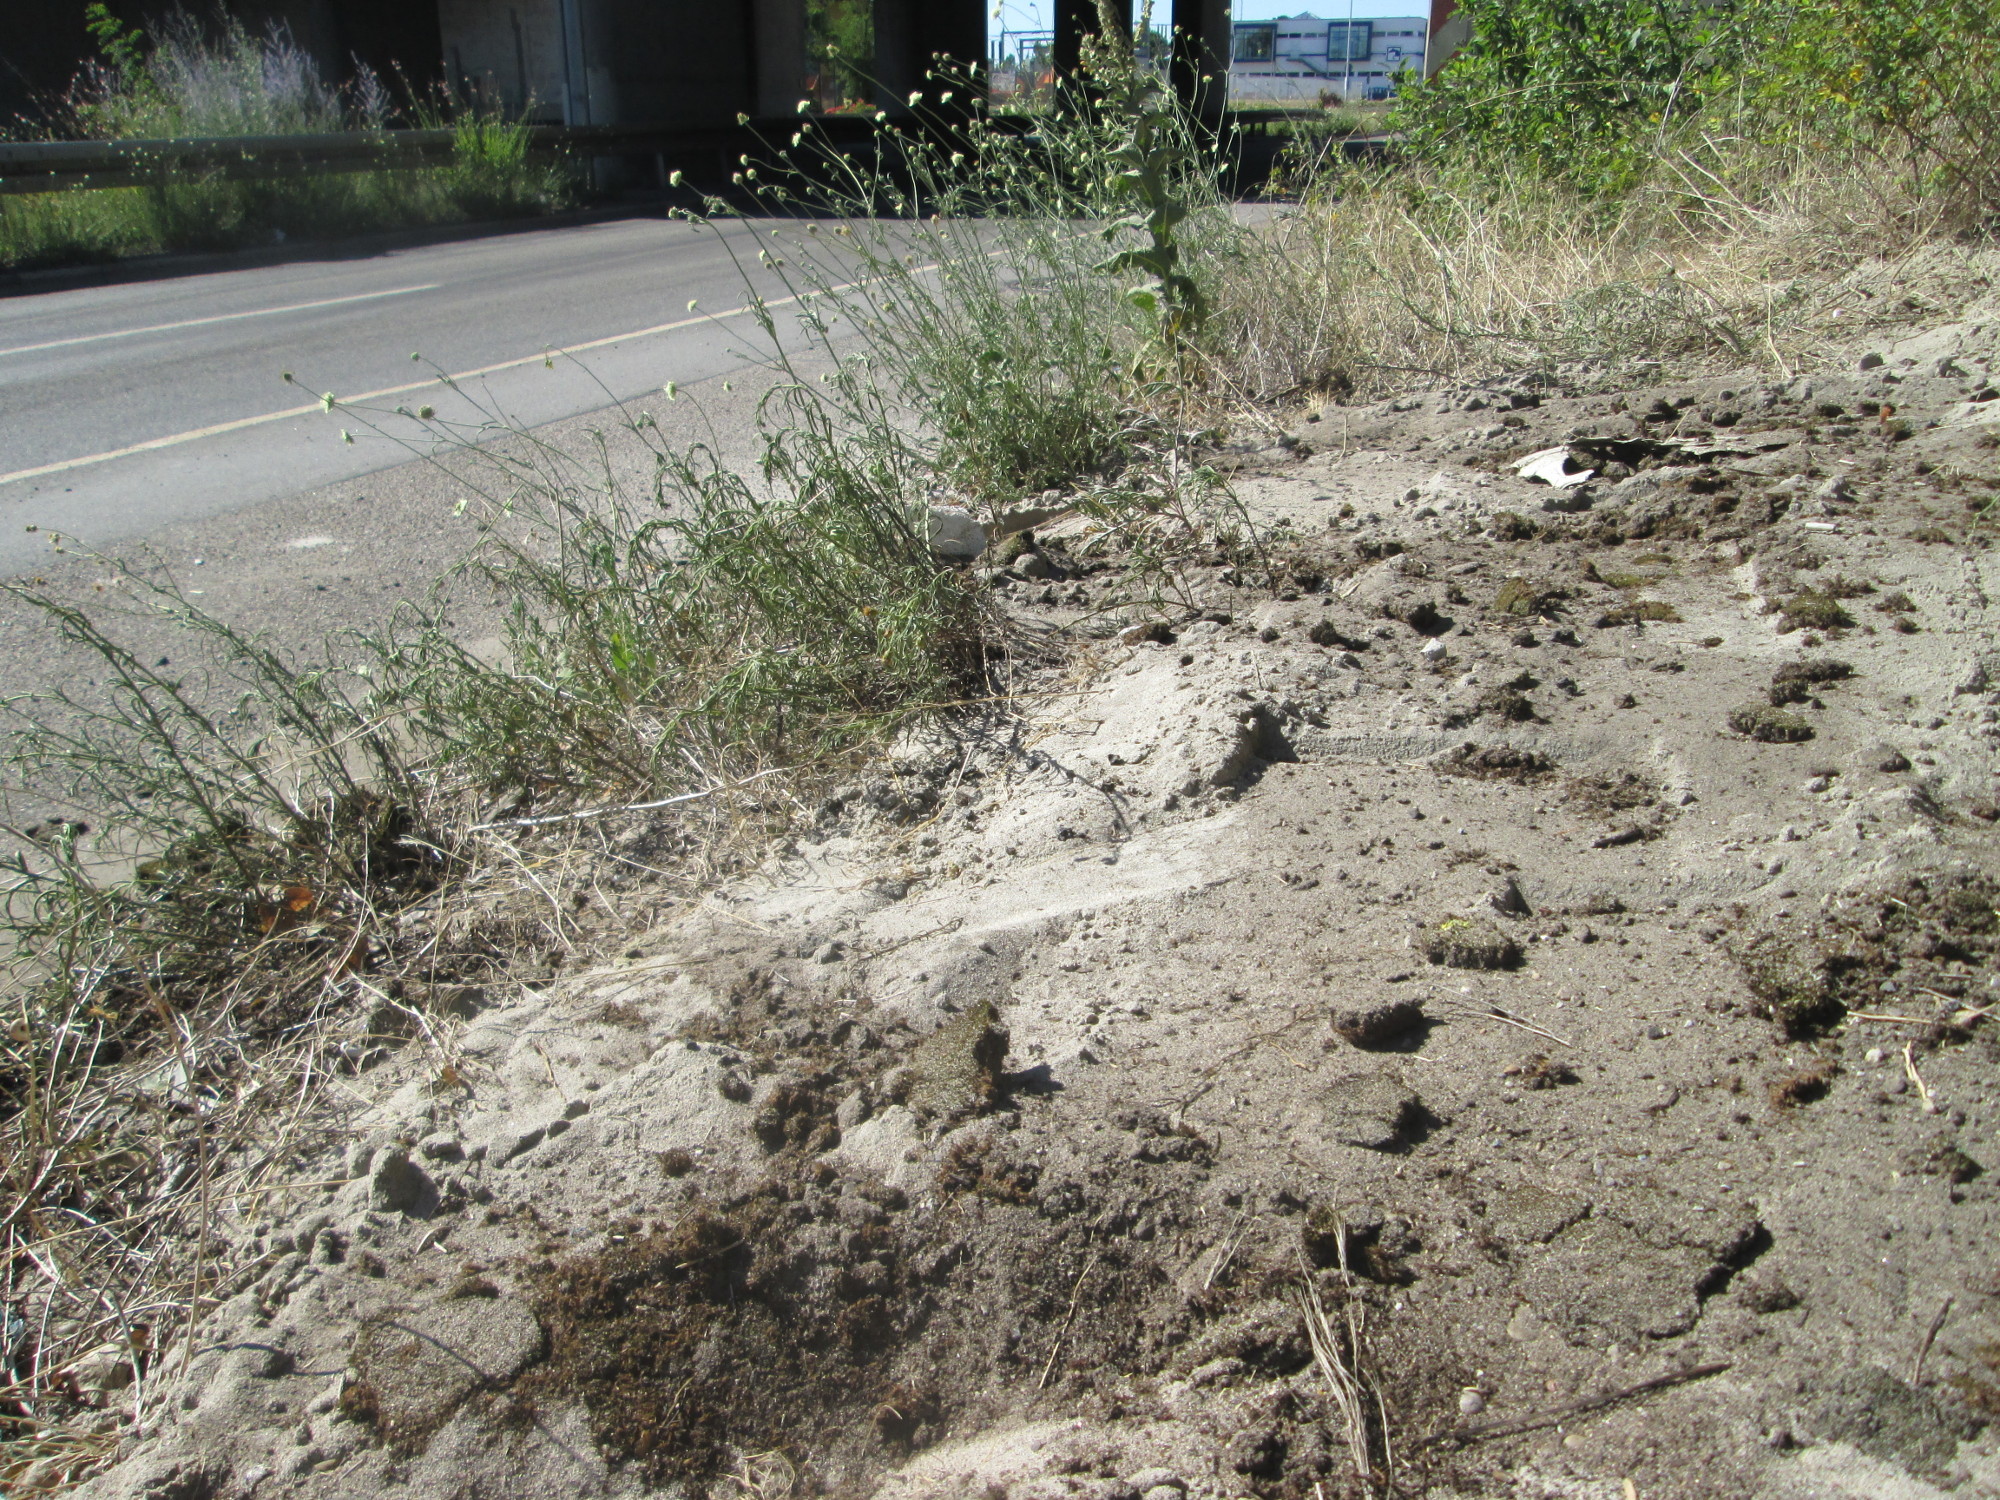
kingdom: Plantae
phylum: Tracheophyta
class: Magnoliopsida
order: Dipsacales
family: Caprifoliaceae
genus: Scabiosa
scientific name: Scabiosa ochroleuca
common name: Cream pincushions
